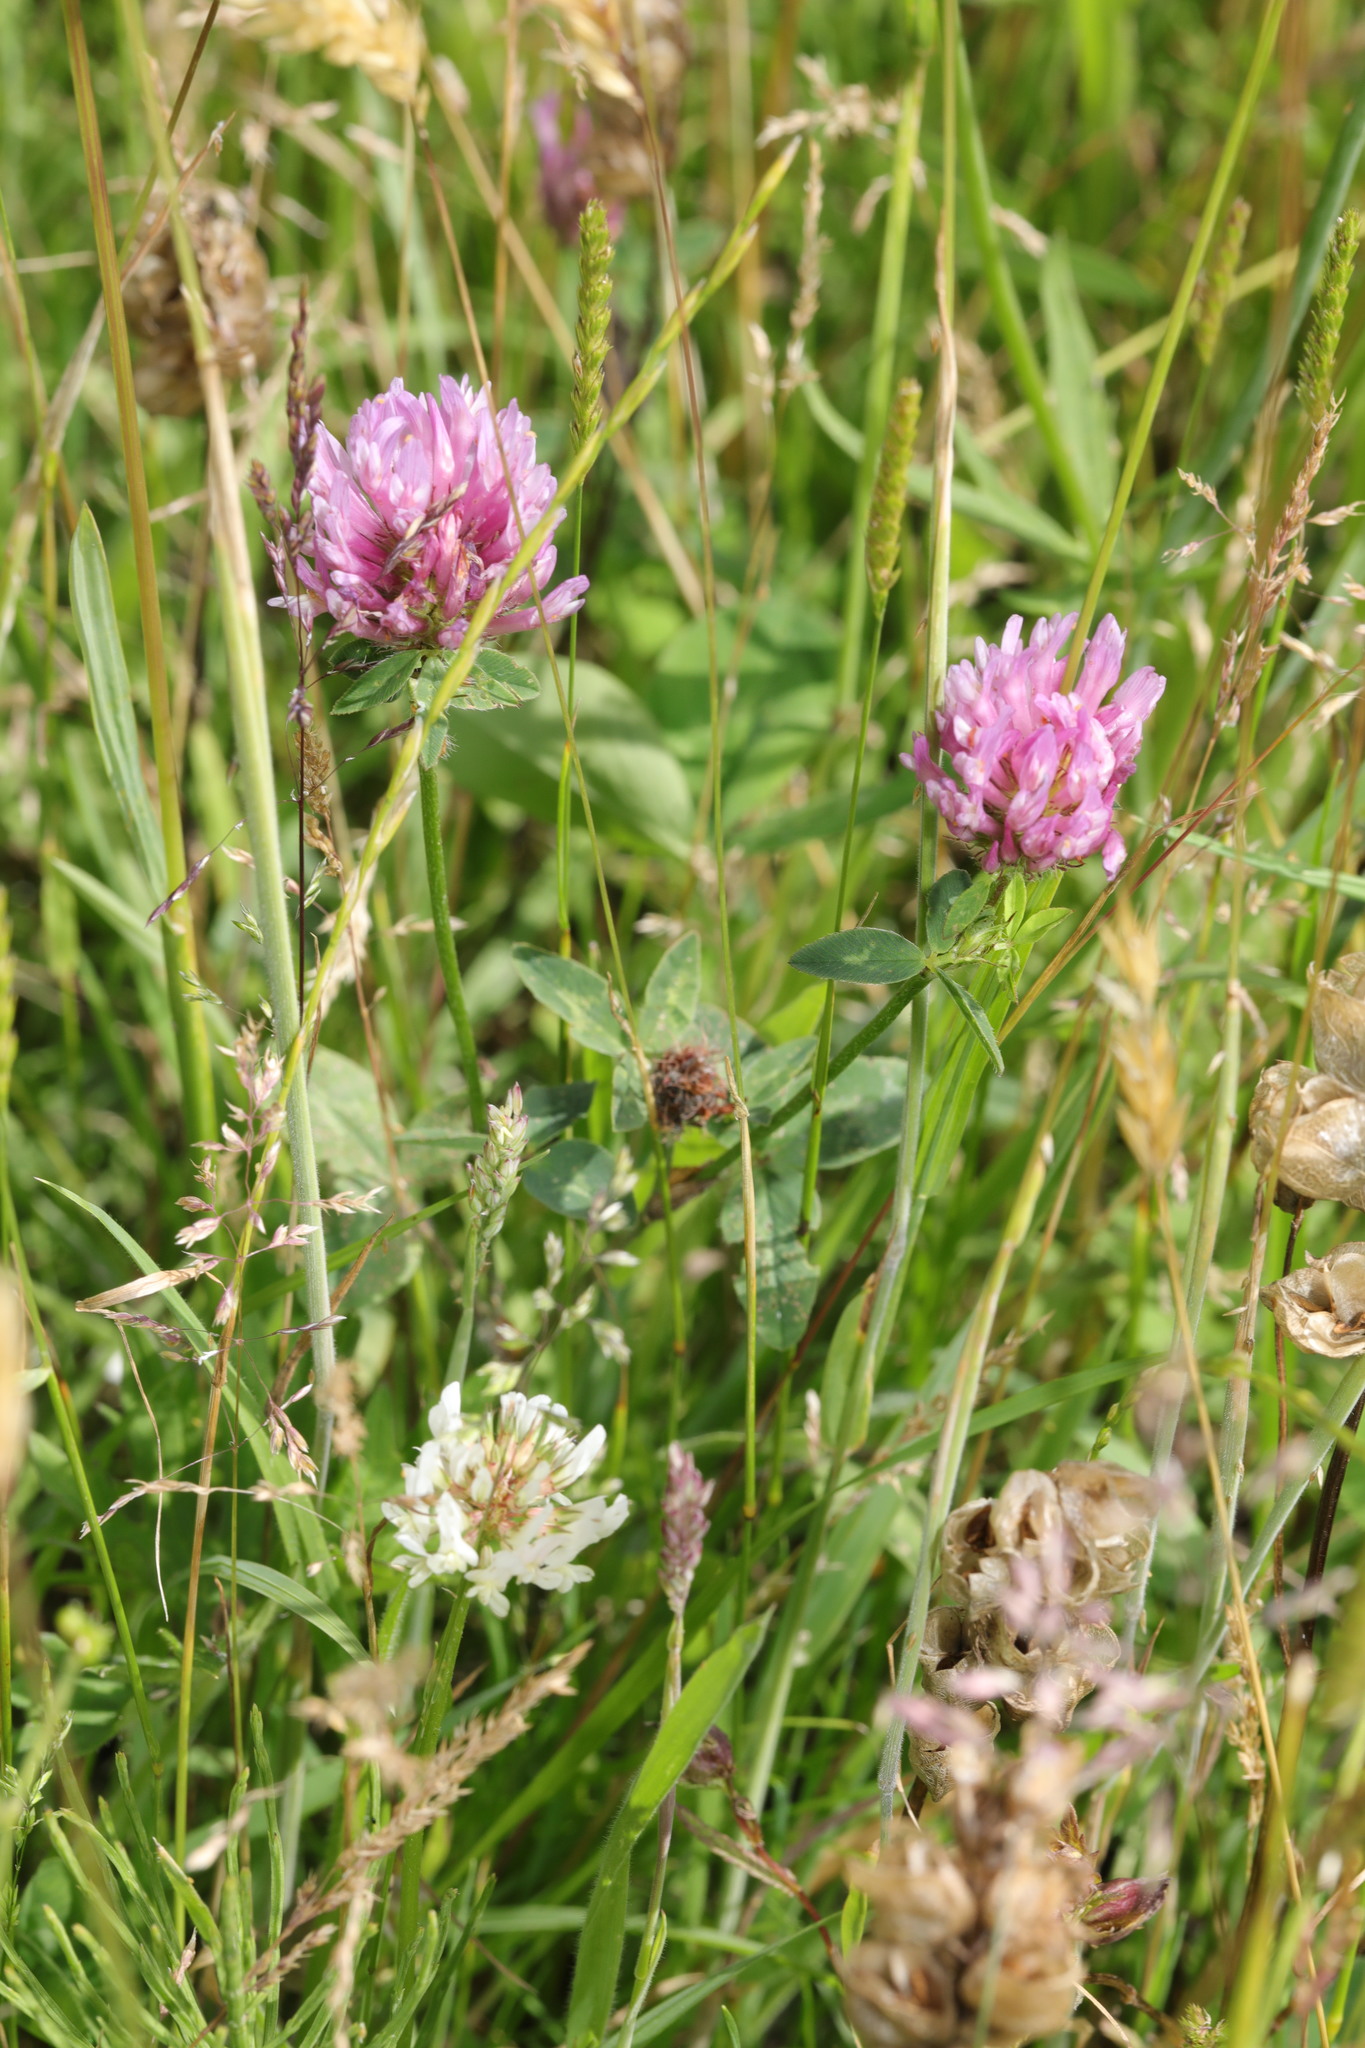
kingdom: Plantae
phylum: Tracheophyta
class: Magnoliopsida
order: Fabales
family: Fabaceae
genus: Trifolium
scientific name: Trifolium pratense
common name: Red clover
